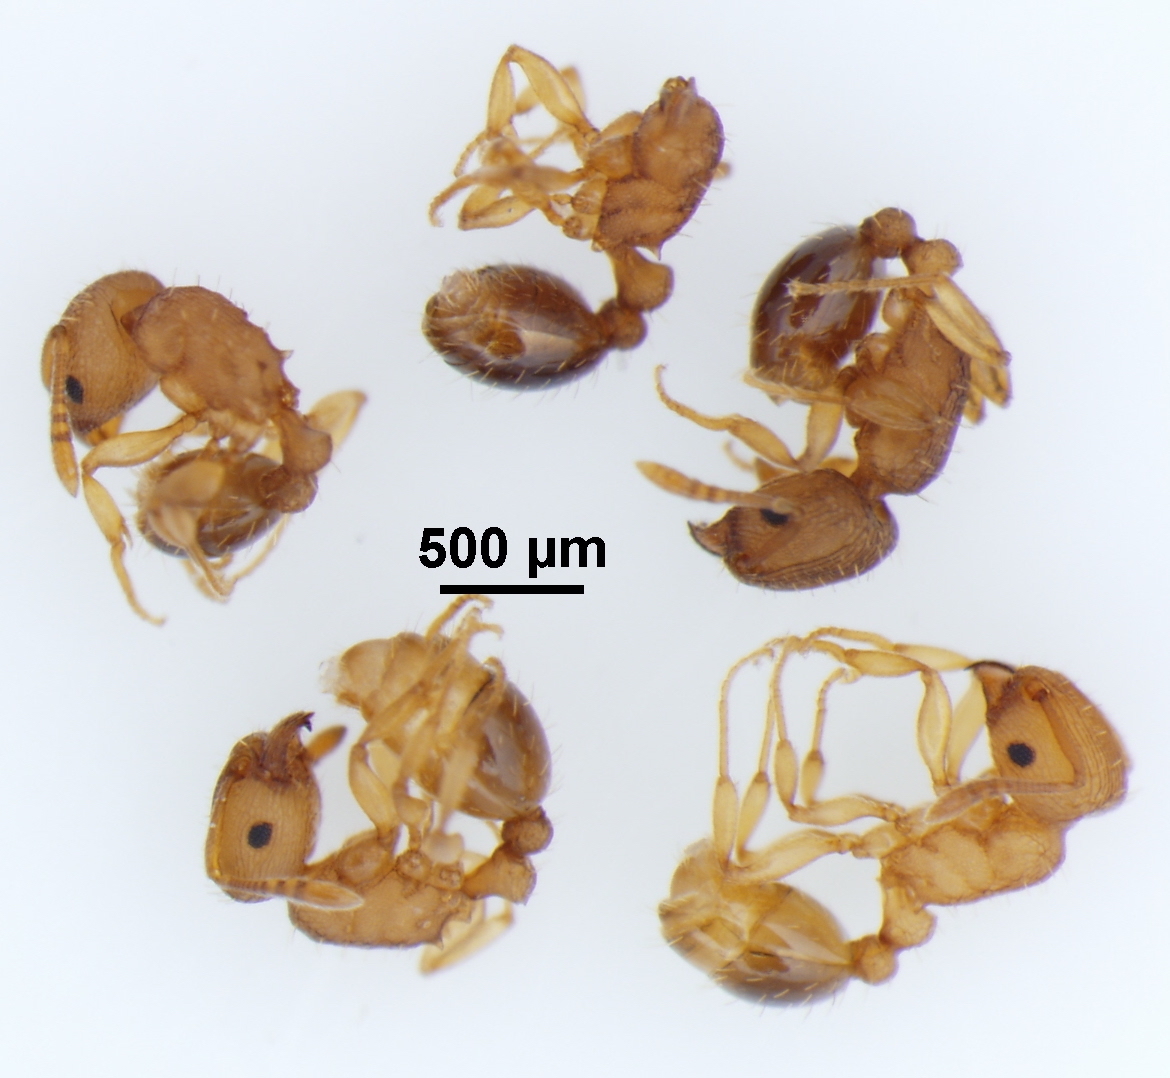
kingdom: Animalia
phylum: Arthropoda
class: Insecta
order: Hymenoptera
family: Formicidae
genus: Tetramorium
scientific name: Tetramorium simillimum
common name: Ant
